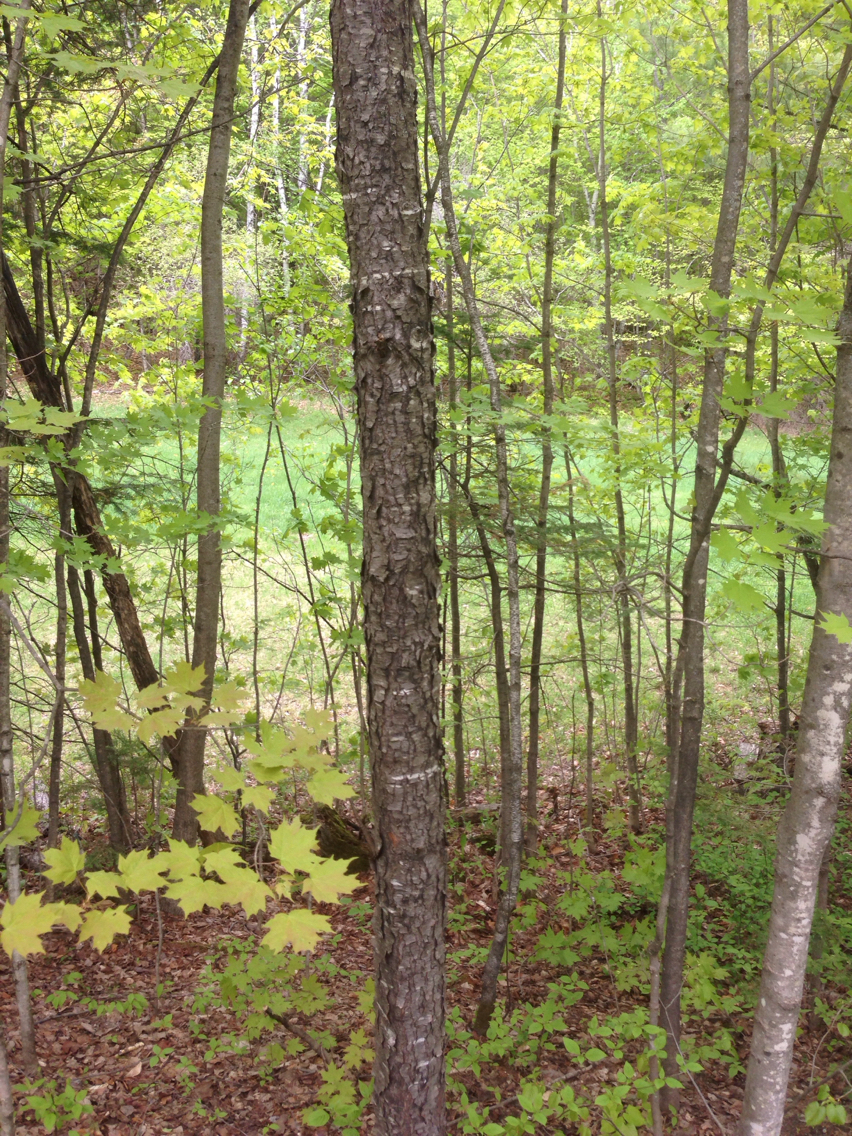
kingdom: Plantae
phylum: Tracheophyta
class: Magnoliopsida
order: Rosales
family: Rosaceae
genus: Prunus
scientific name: Prunus serotina
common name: Black cherry
